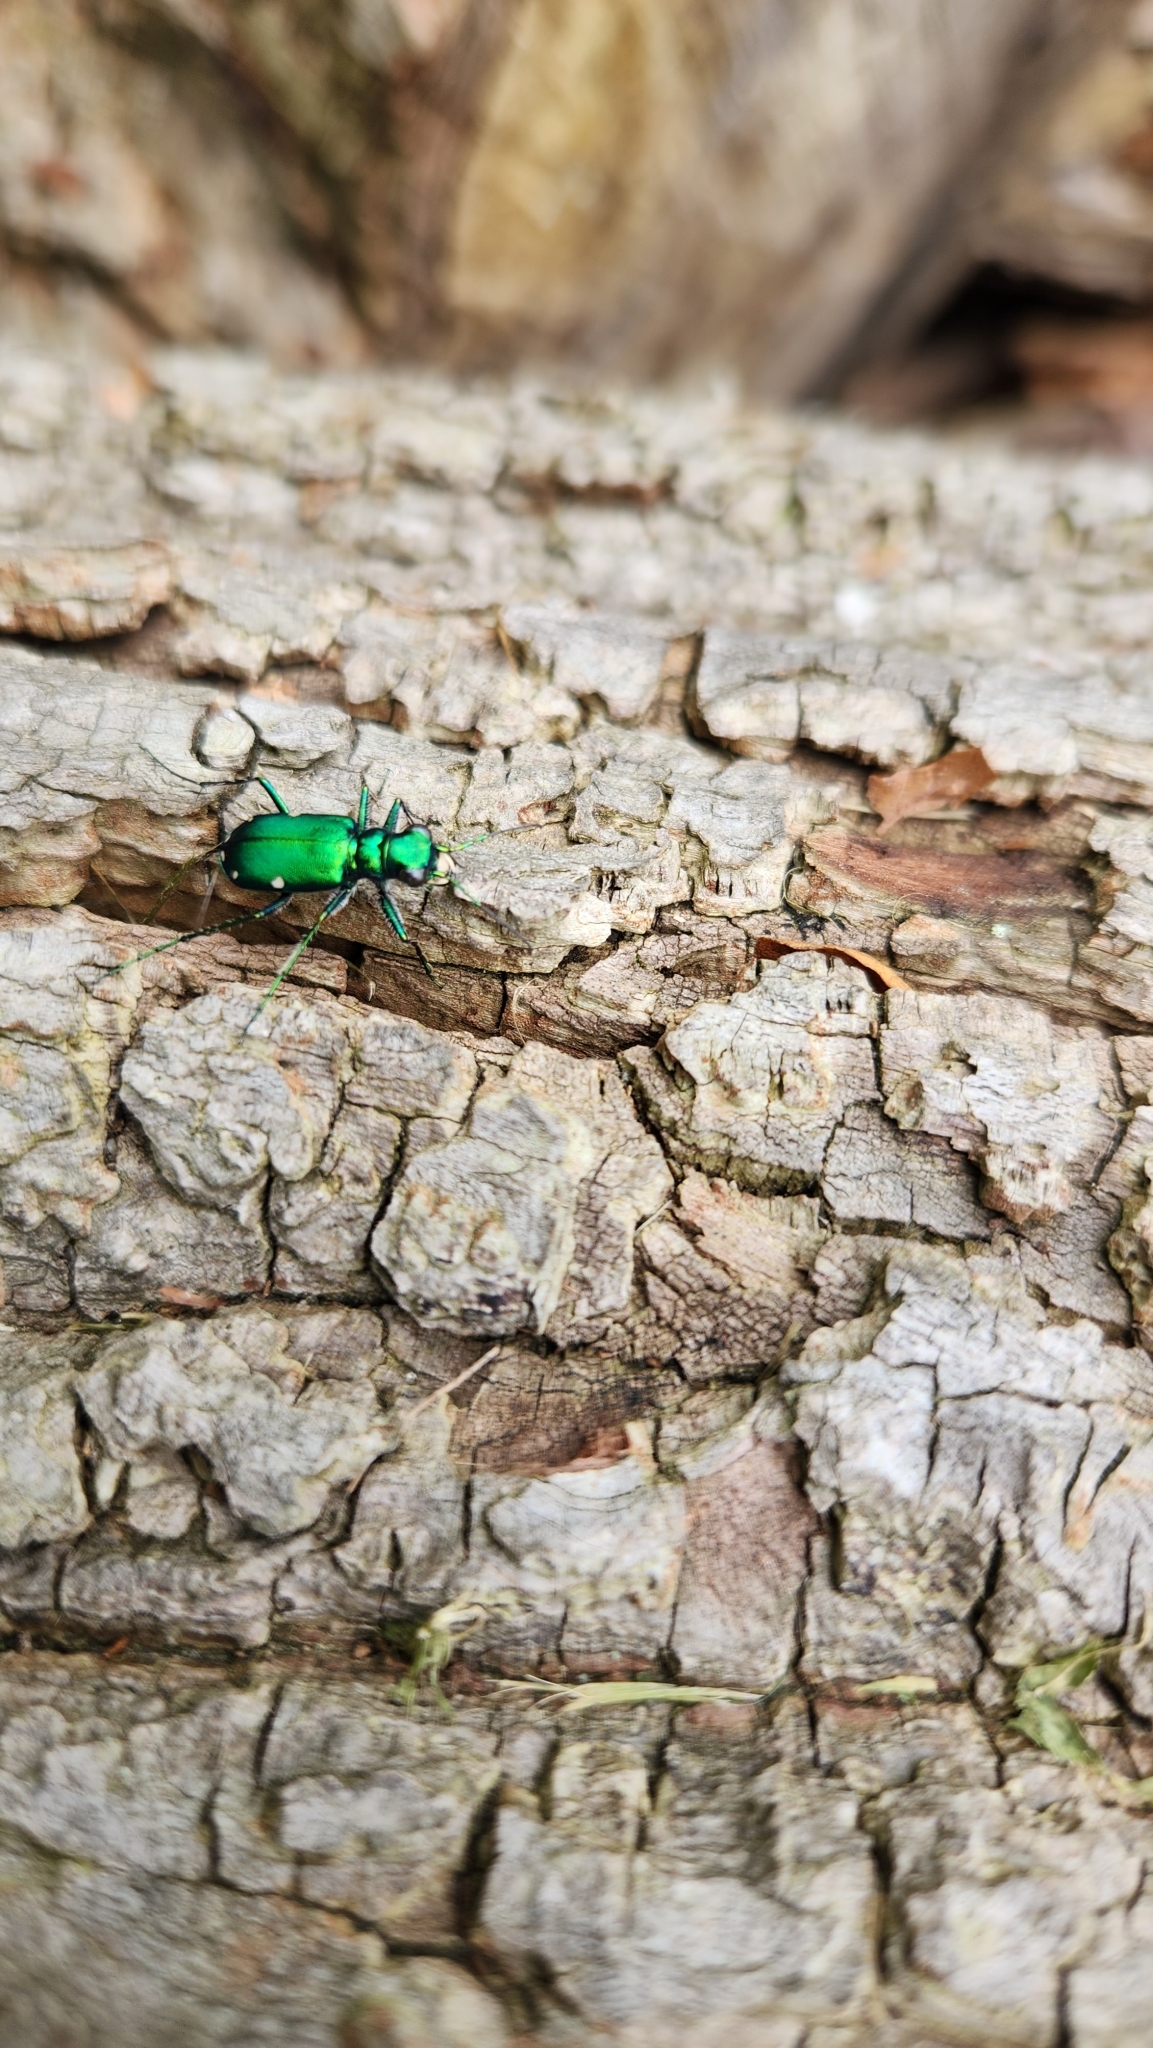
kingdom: Animalia
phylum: Arthropoda
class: Insecta
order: Coleoptera
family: Carabidae
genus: Cicindela
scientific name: Cicindela sexguttata
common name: Six-spotted tiger beetle
